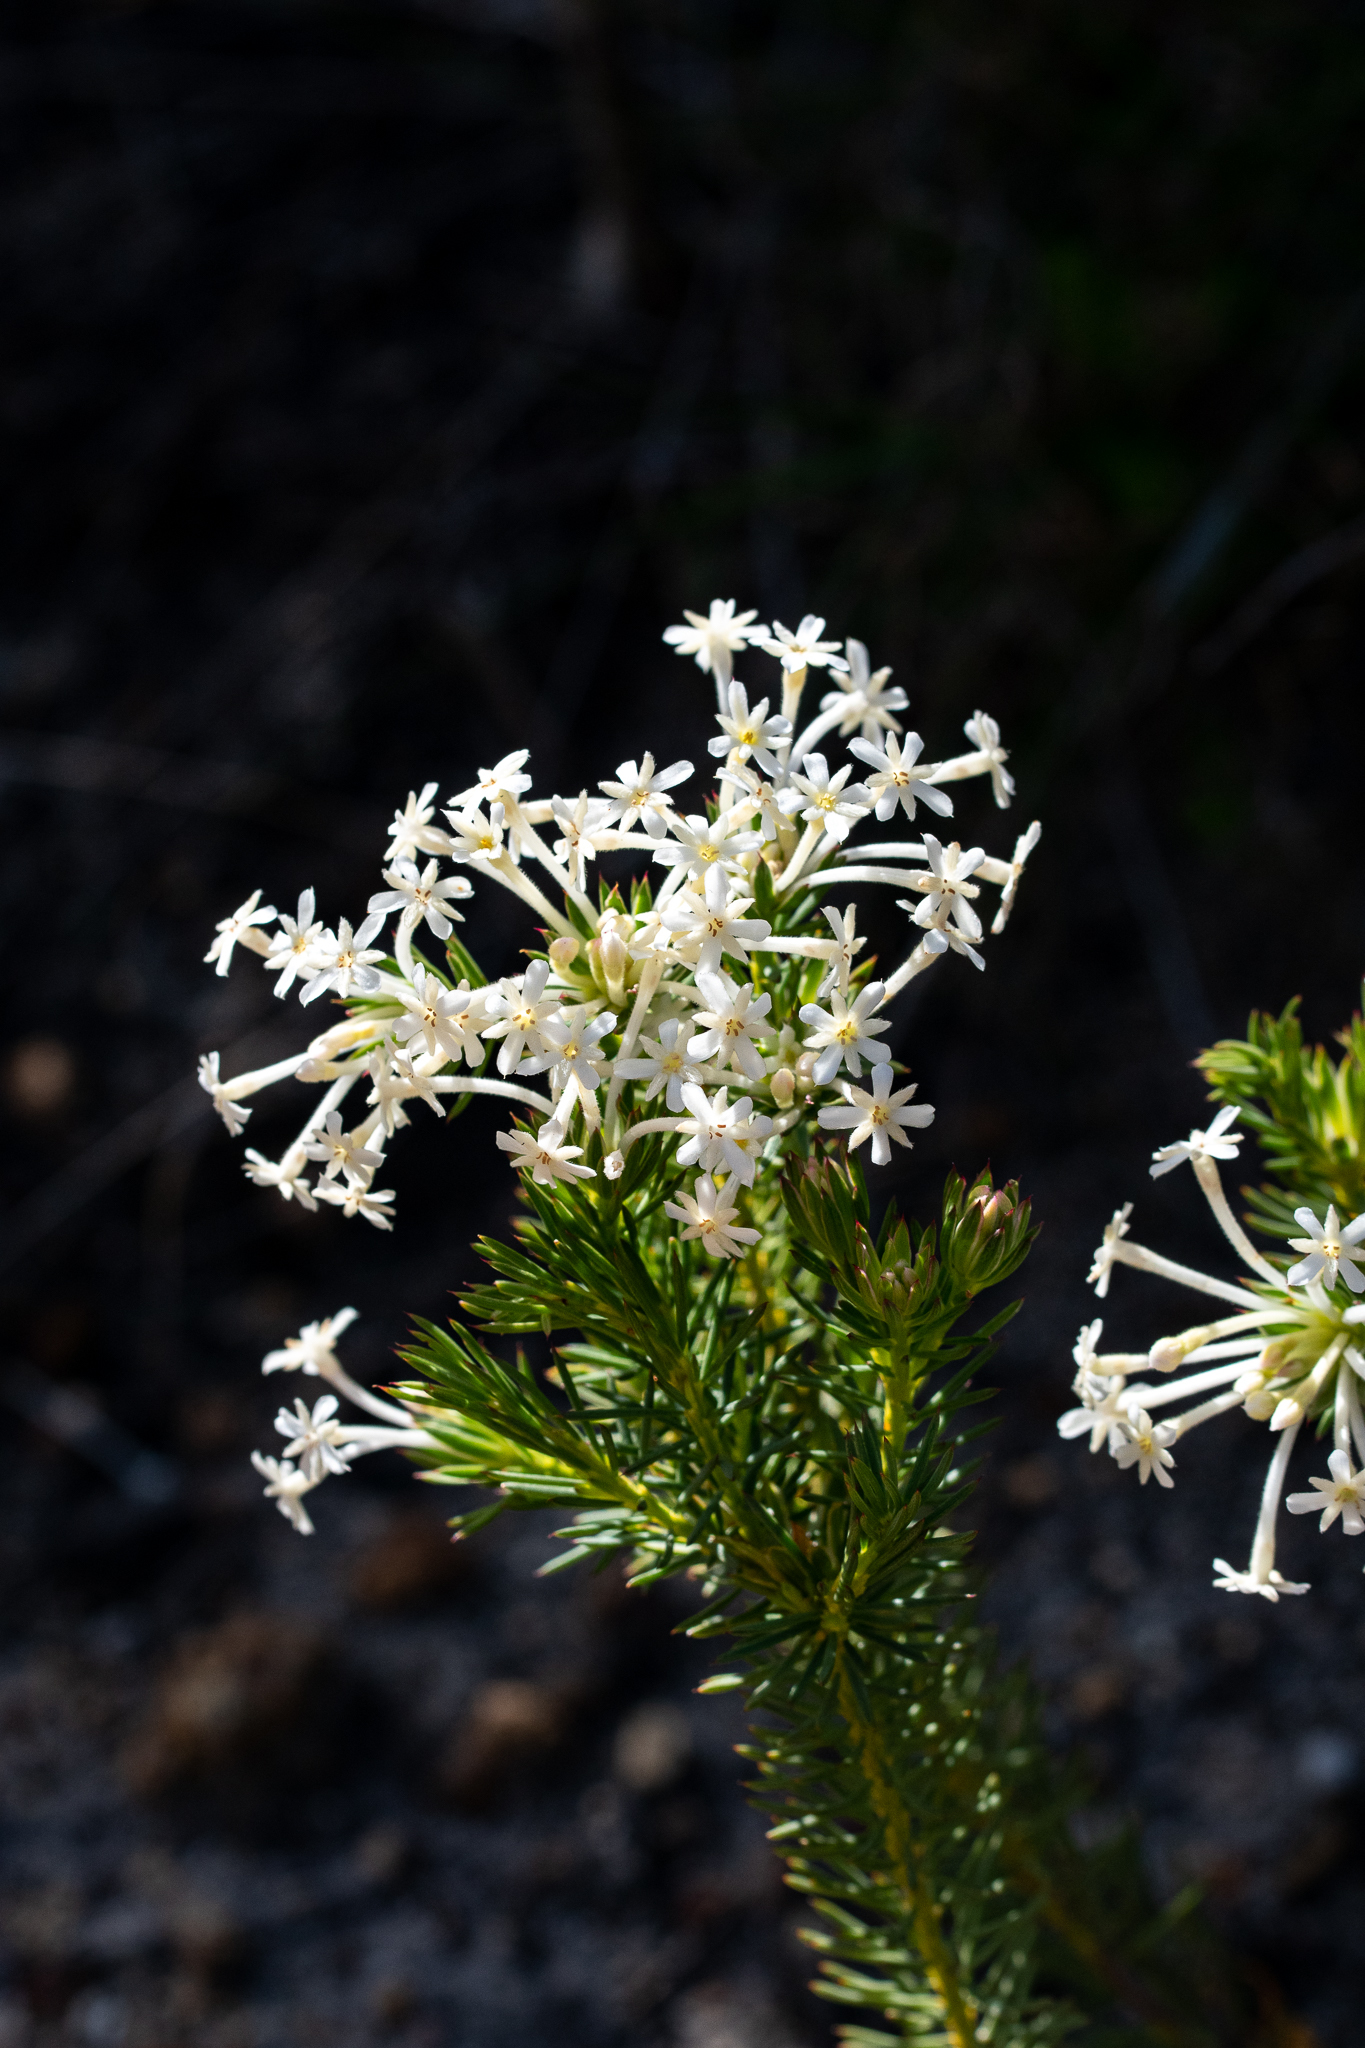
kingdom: Plantae
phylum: Tracheophyta
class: Magnoliopsida
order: Malvales
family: Thymelaeaceae
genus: Gnidia
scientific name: Gnidia pinifolia
